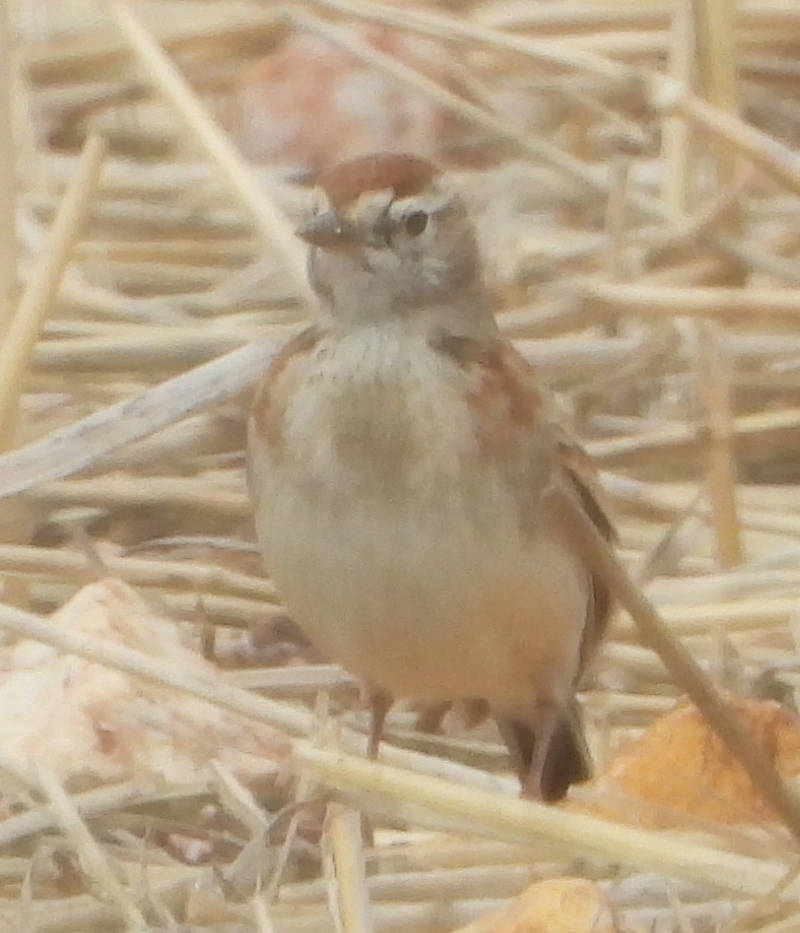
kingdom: Animalia
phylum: Chordata
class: Aves
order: Passeriformes
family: Alaudidae
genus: Calandrella
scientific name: Calandrella cinerea
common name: Red-capped lark
